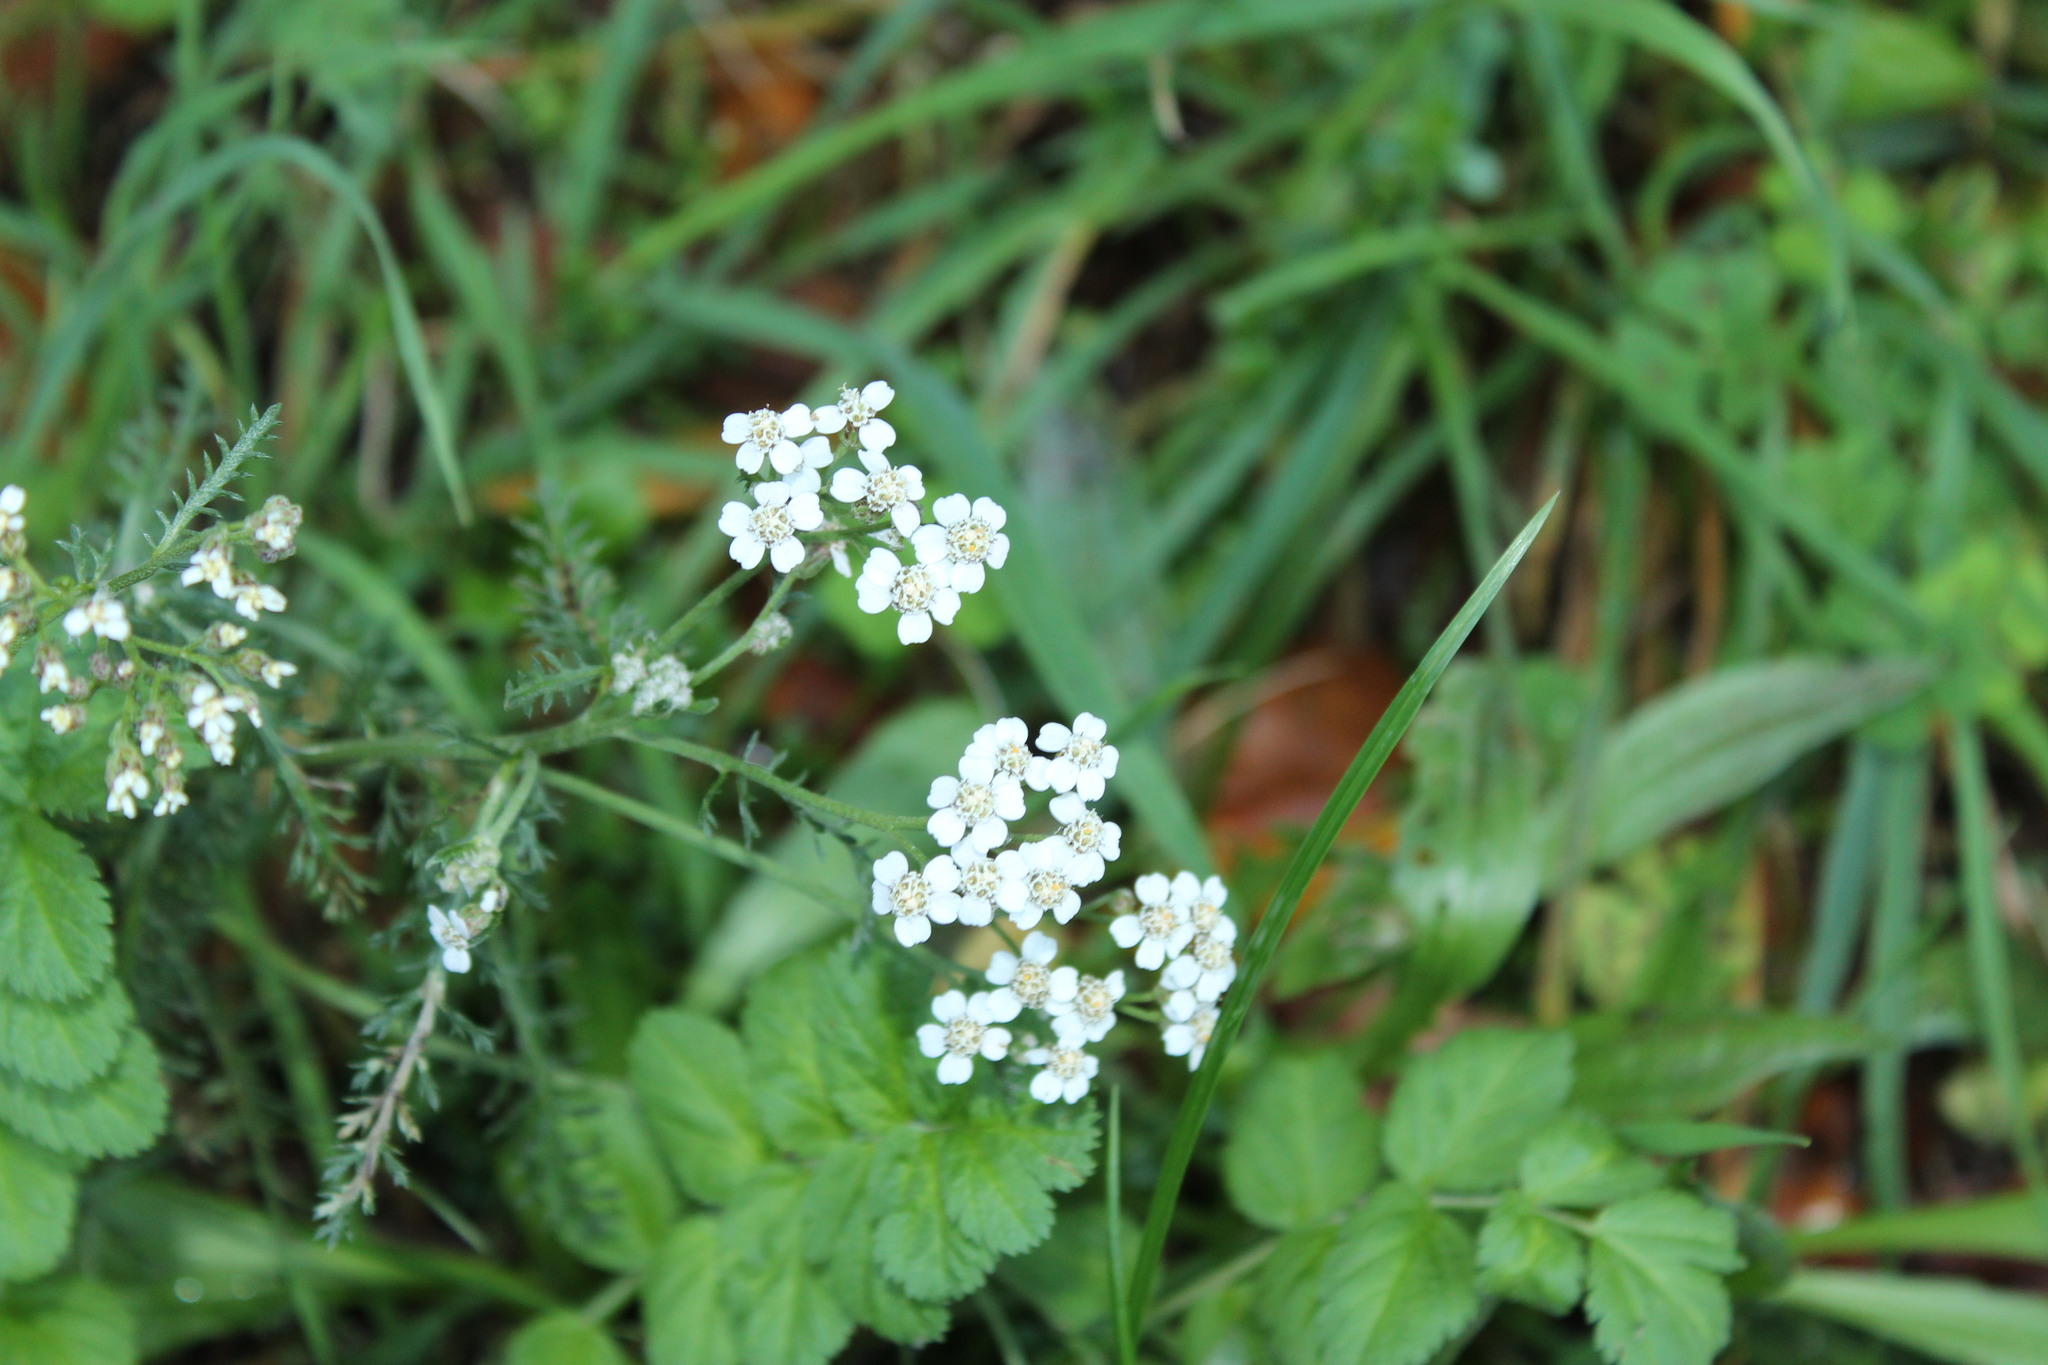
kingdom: Plantae
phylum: Tracheophyta
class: Magnoliopsida
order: Asterales
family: Asteraceae
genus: Achillea
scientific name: Achillea millefolium
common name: Yarrow
